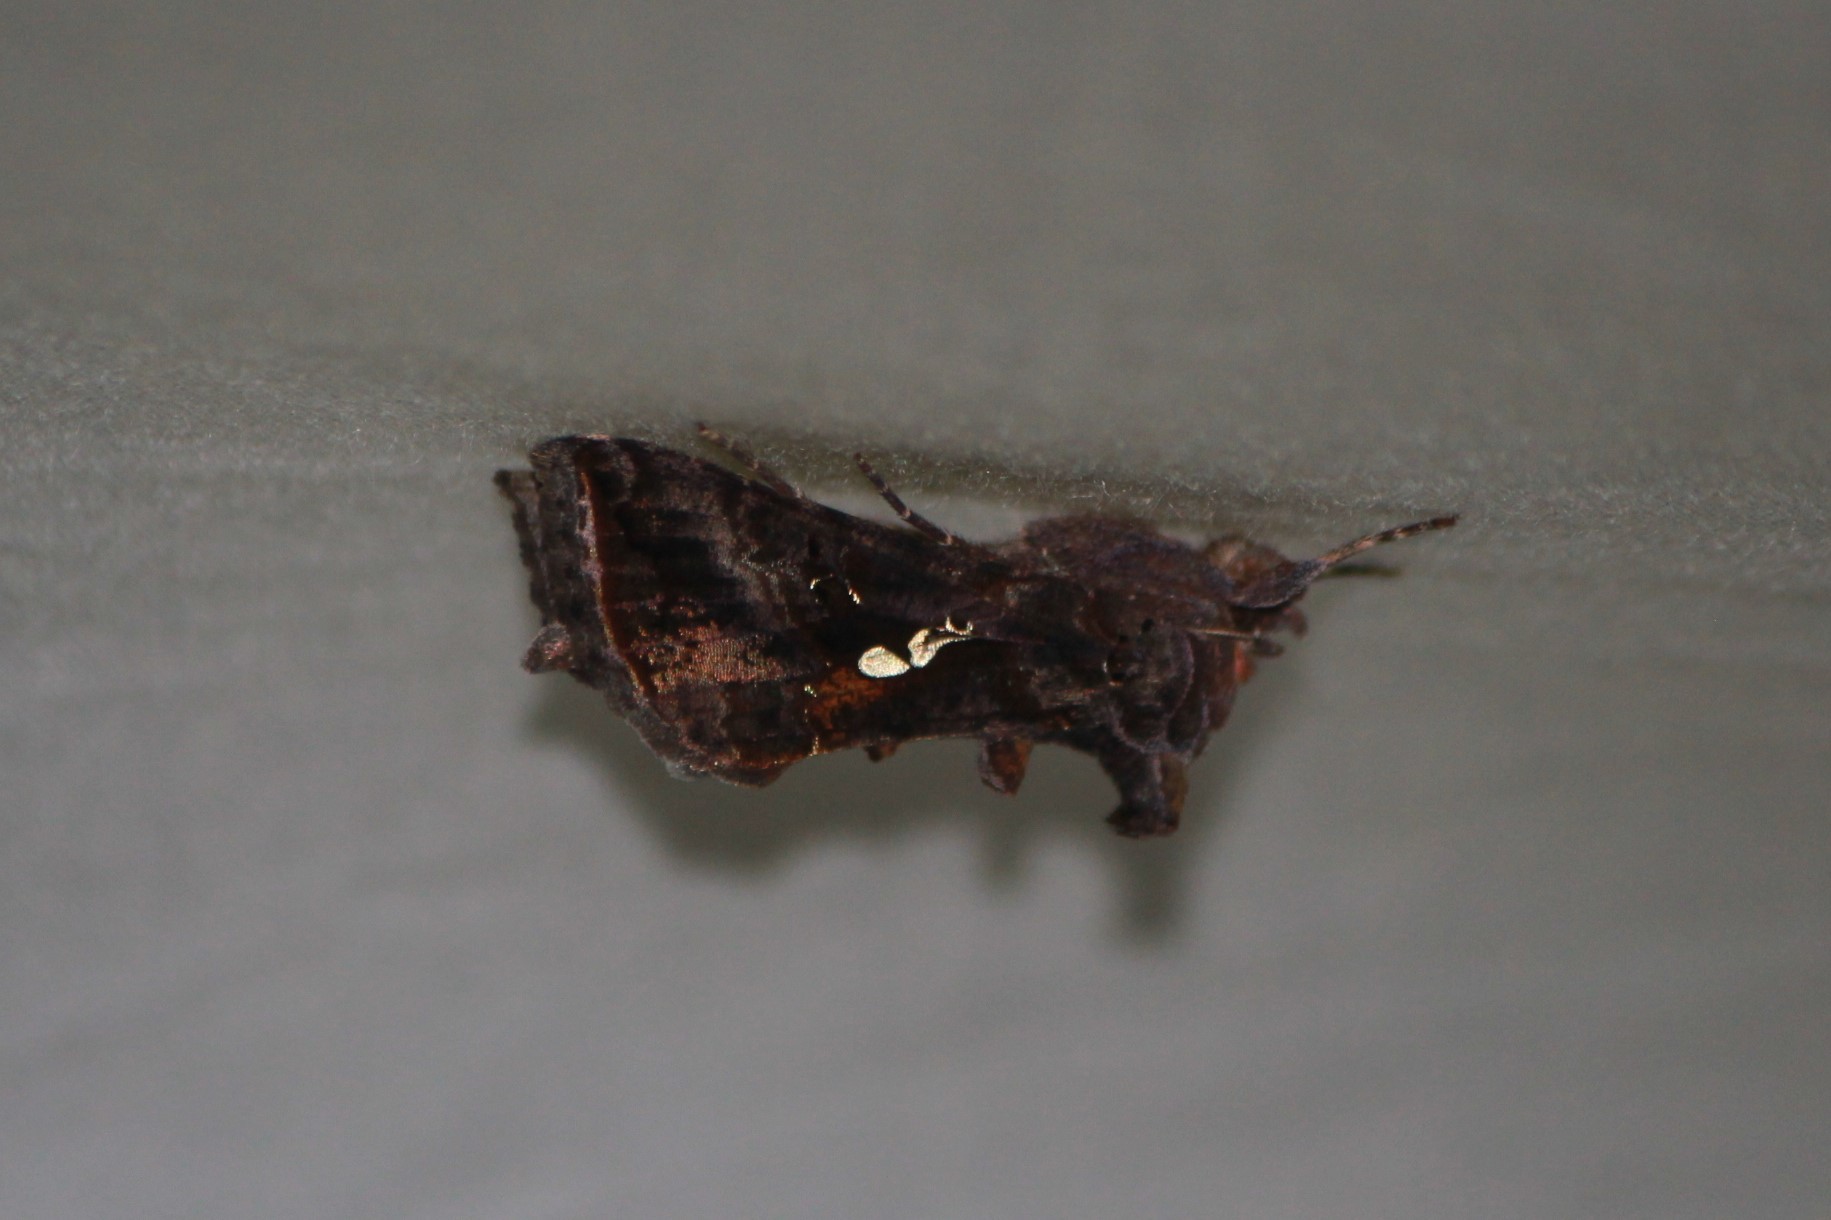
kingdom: Animalia
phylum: Arthropoda
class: Insecta
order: Lepidoptera
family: Noctuidae
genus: Autographa
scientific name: Autographa precationis
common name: Common looper moth
